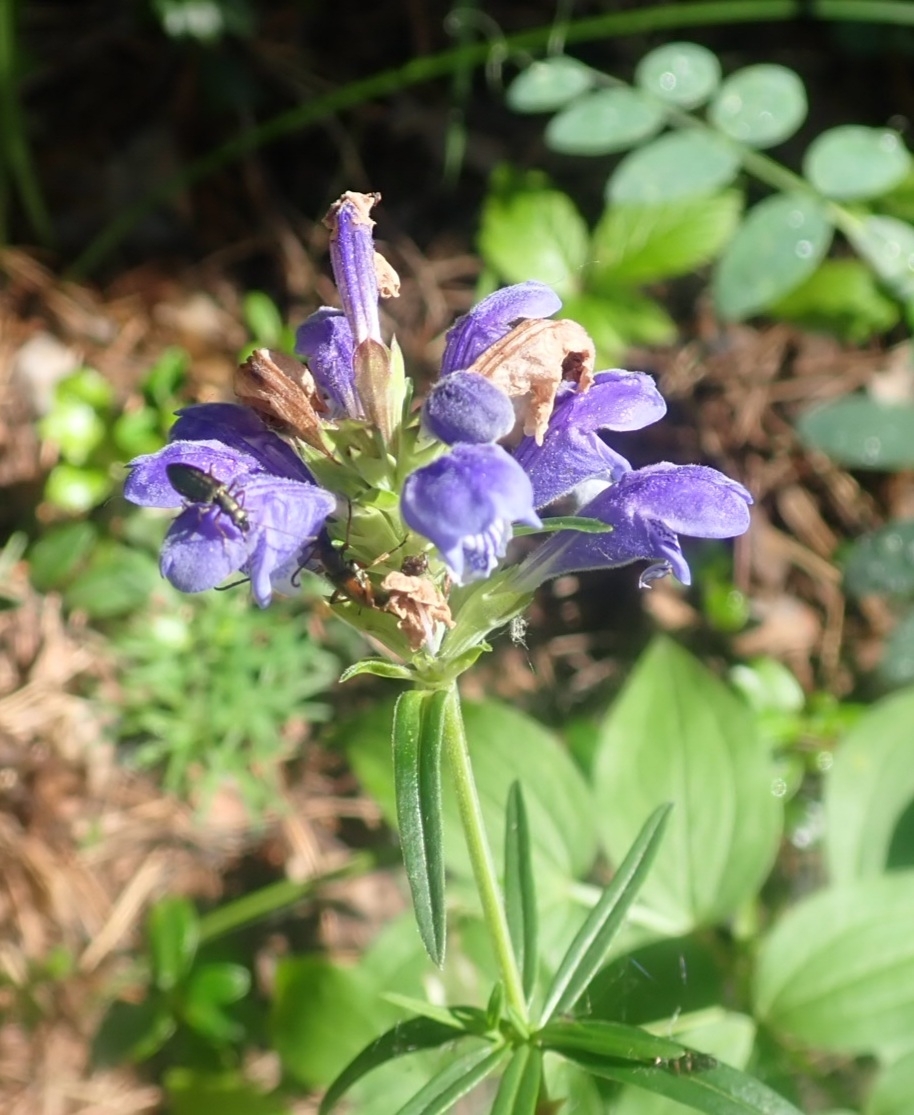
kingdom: Plantae
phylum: Tracheophyta
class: Magnoliopsida
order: Lamiales
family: Lamiaceae
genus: Dracocephalum
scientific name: Dracocephalum ruyschiana
